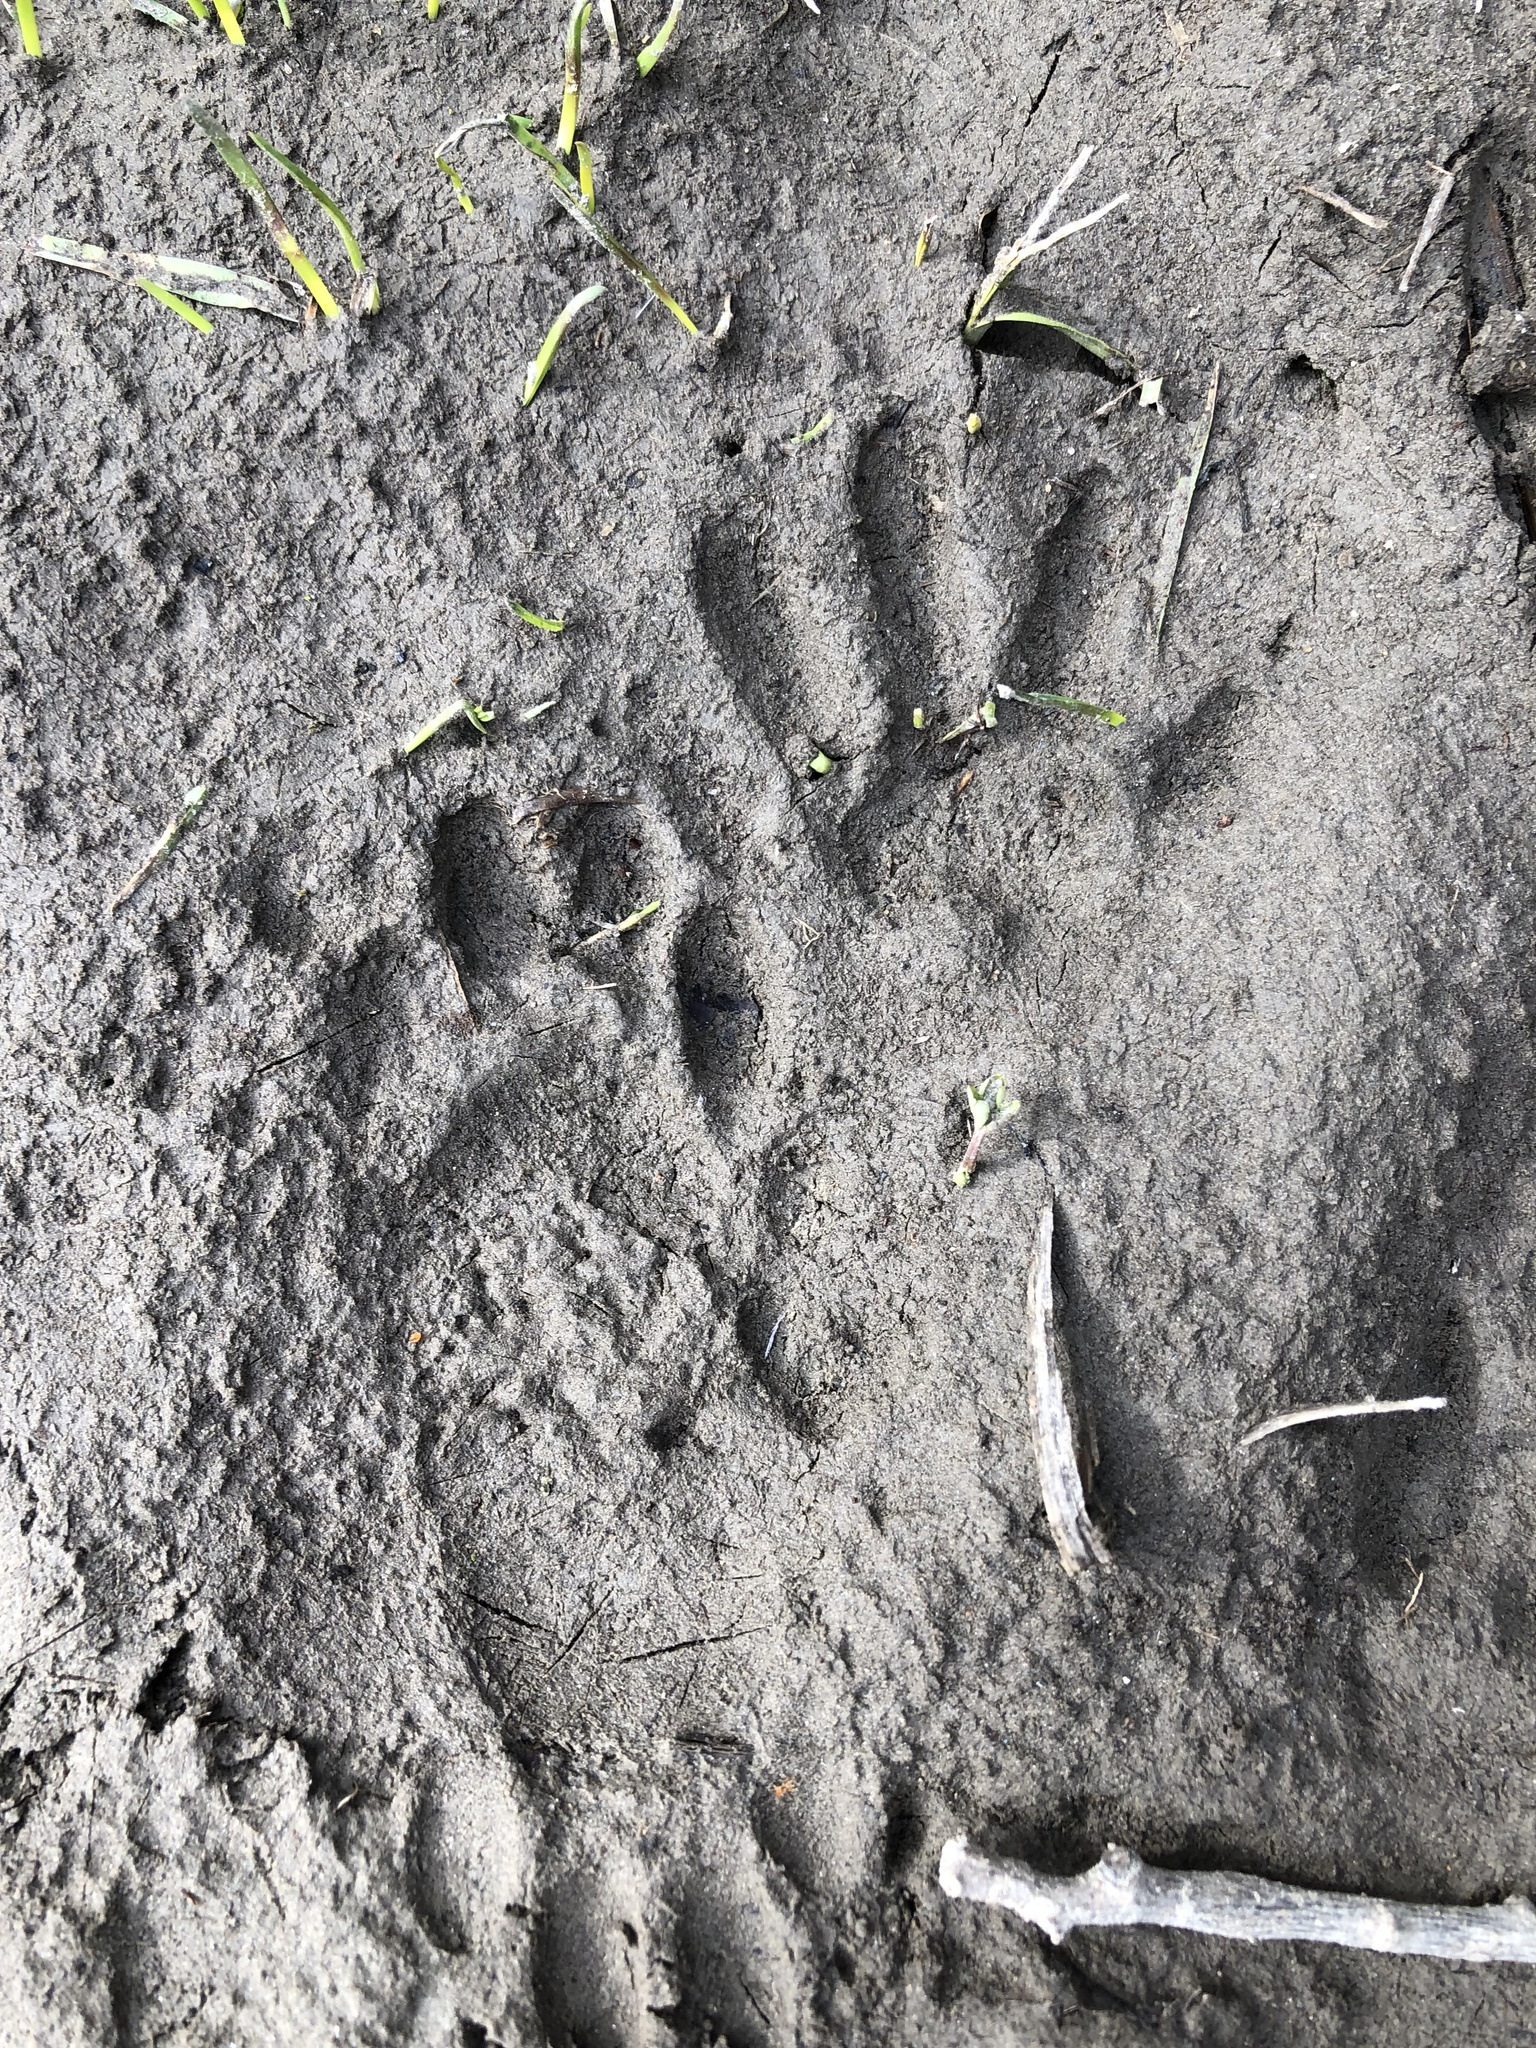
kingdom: Animalia
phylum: Chordata
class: Mammalia
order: Carnivora
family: Procyonidae
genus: Procyon
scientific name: Procyon lotor
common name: Raccoon
